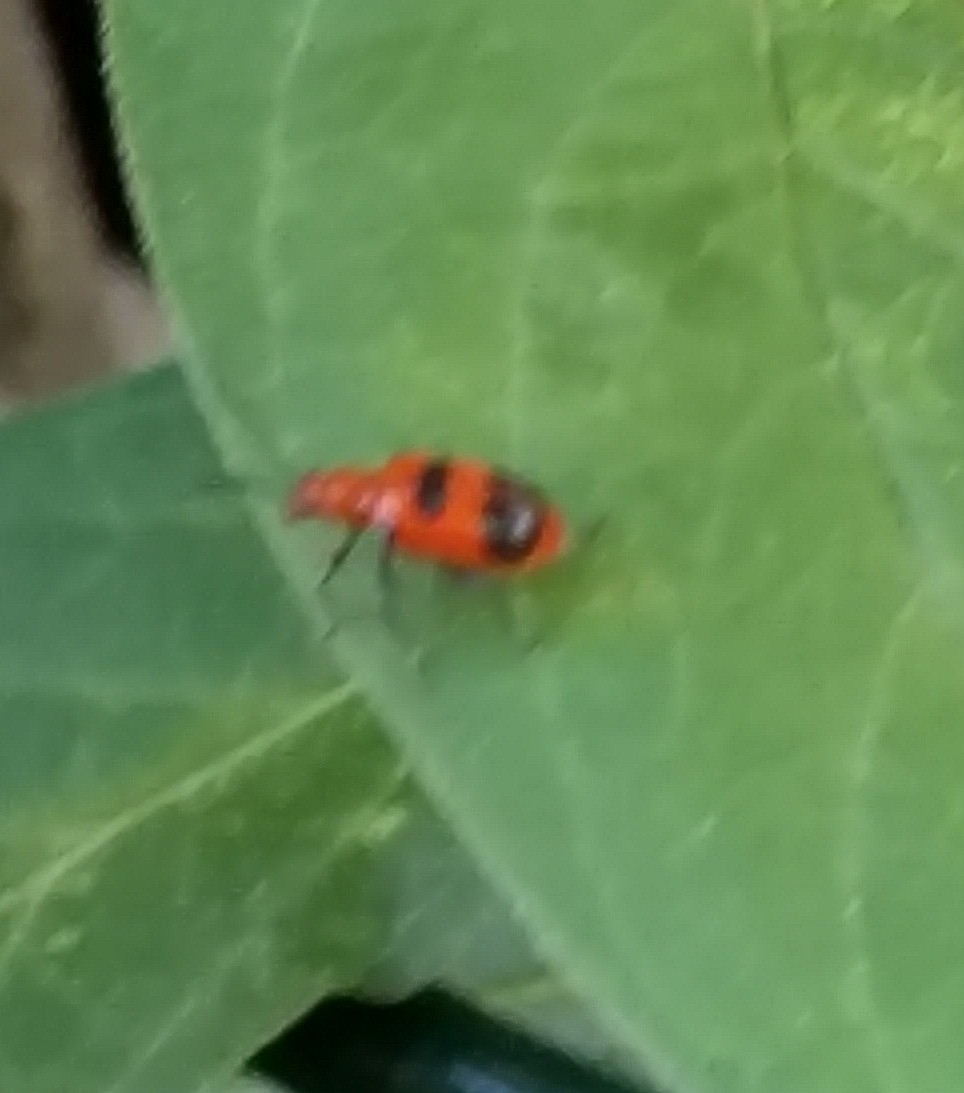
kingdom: Animalia
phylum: Arthropoda
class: Insecta
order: Coleoptera
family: Chrysomelidae
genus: Neolema
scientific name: Neolema sexpunctata
